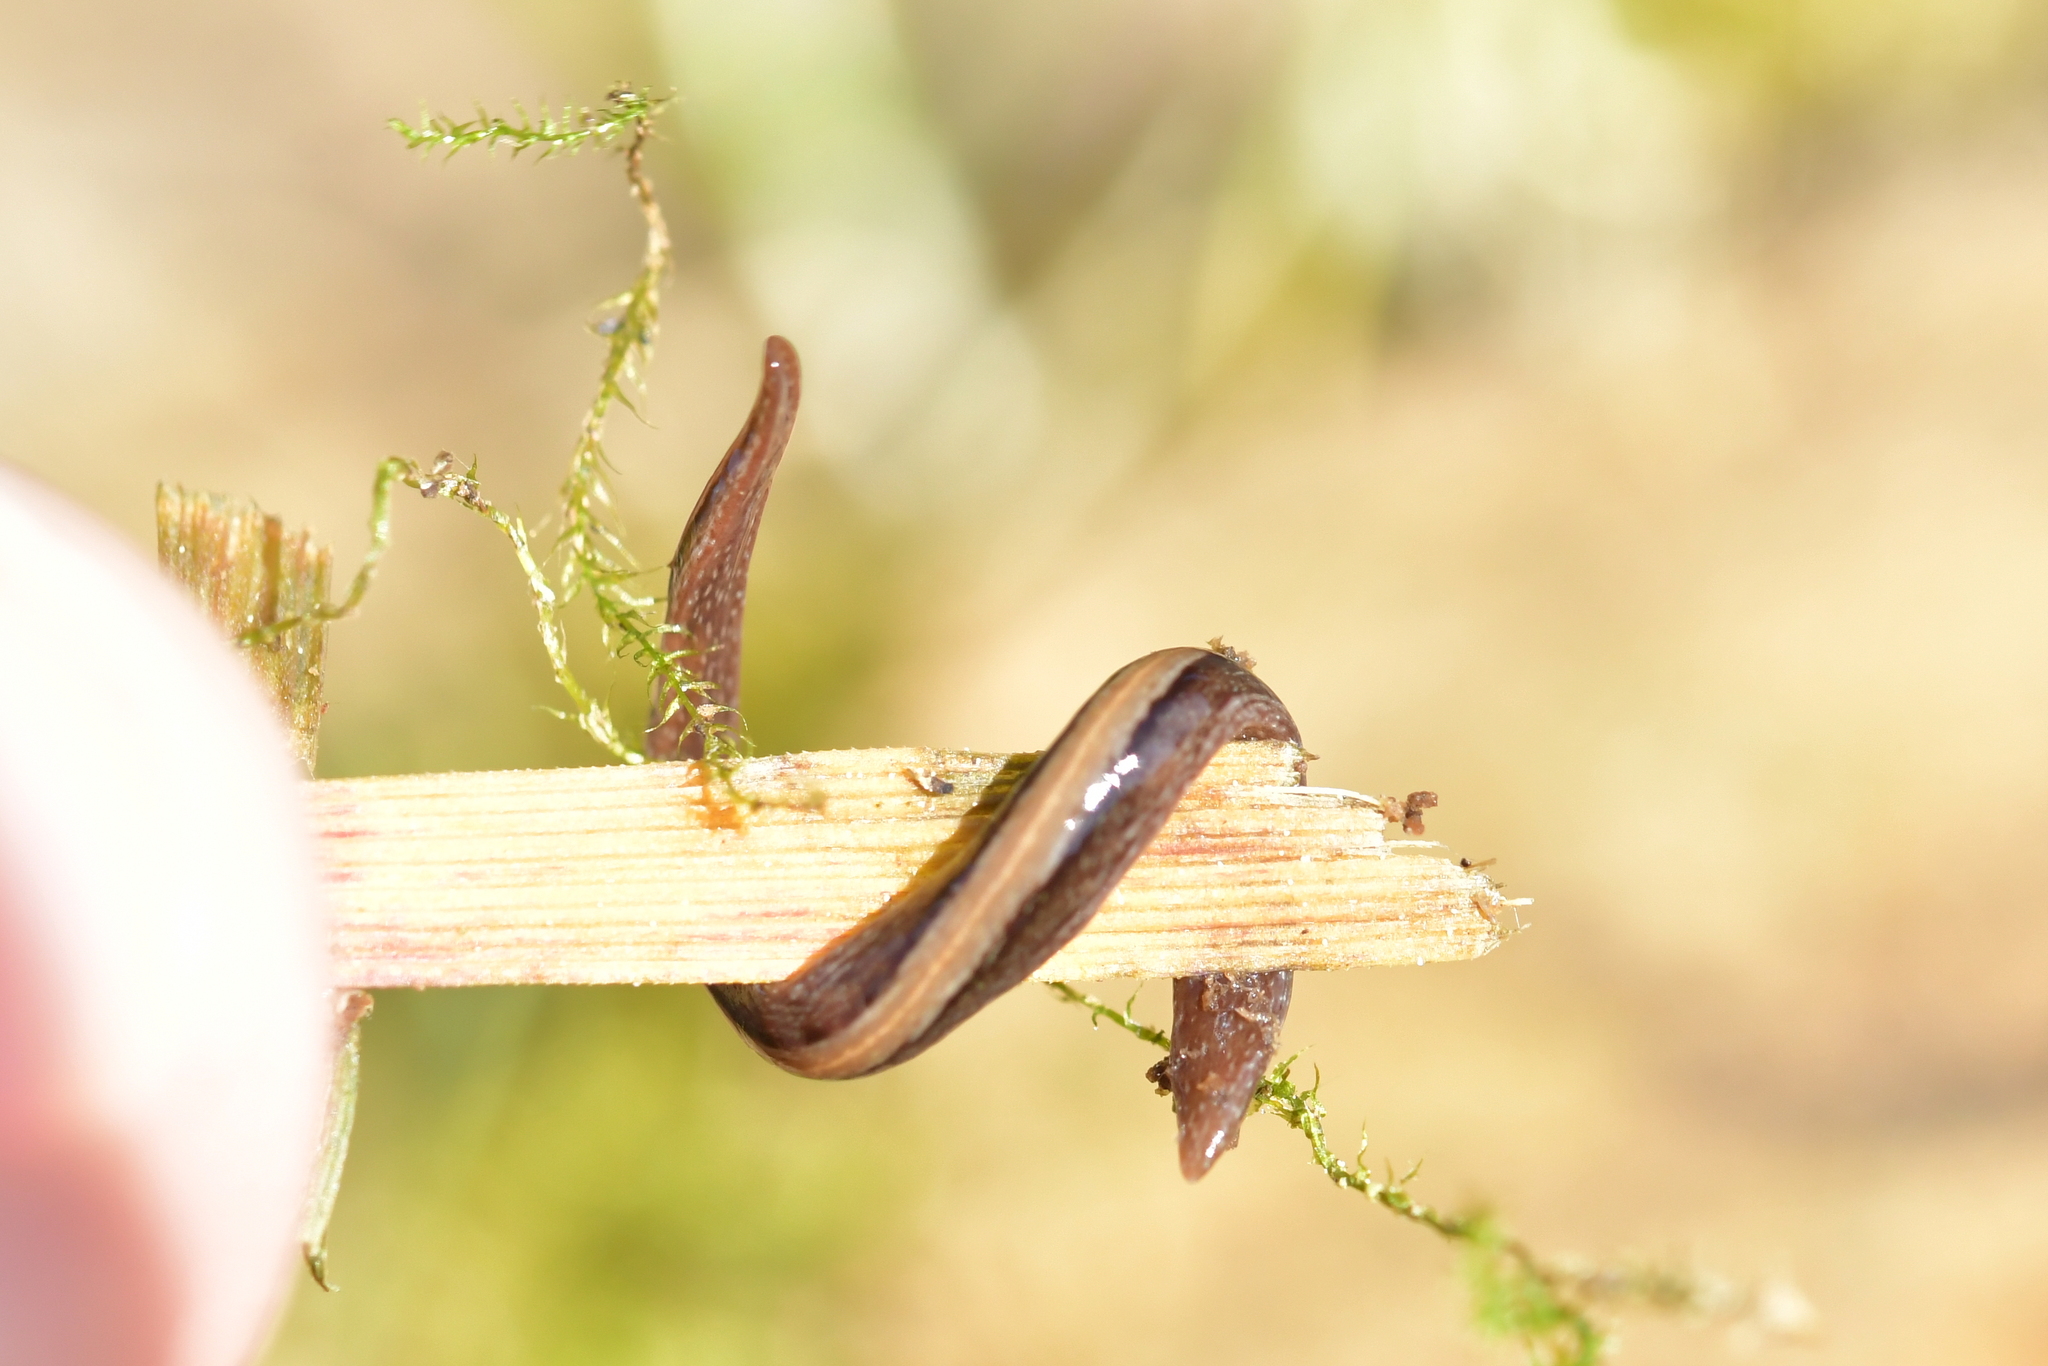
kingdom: Animalia
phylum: Platyhelminthes
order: Tricladida
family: Geoplanidae
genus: Newzealandia
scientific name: Newzealandia graffii
